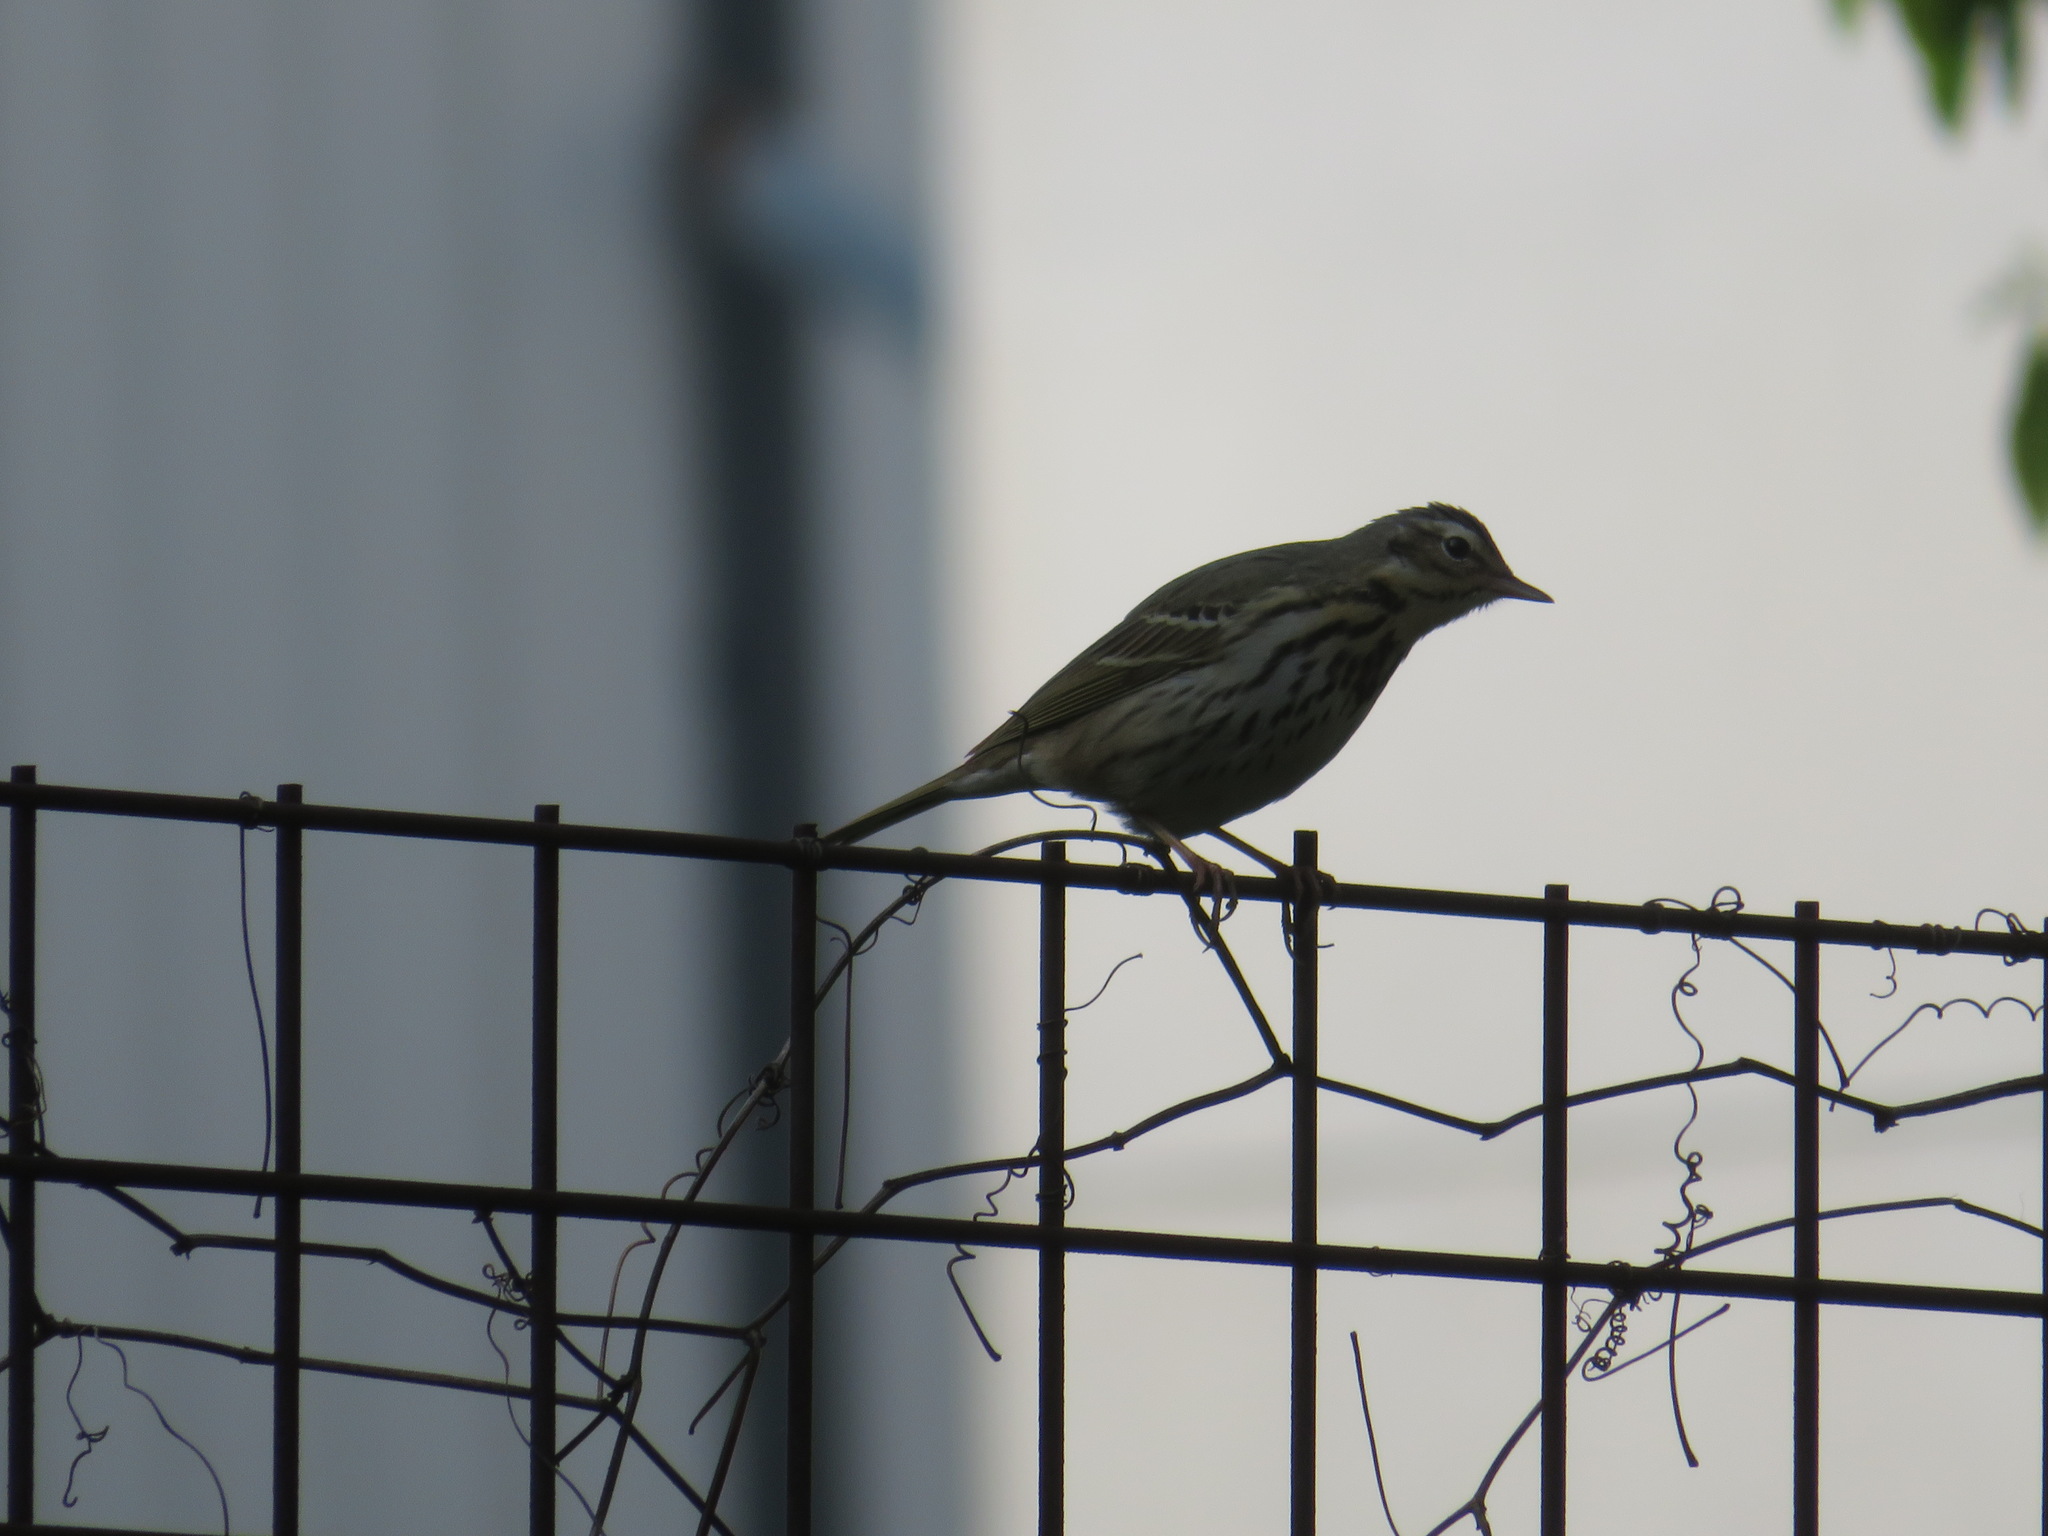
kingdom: Animalia
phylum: Chordata
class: Aves
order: Passeriformes
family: Motacillidae
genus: Anthus
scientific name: Anthus hodgsoni
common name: Olive-backed pipit
